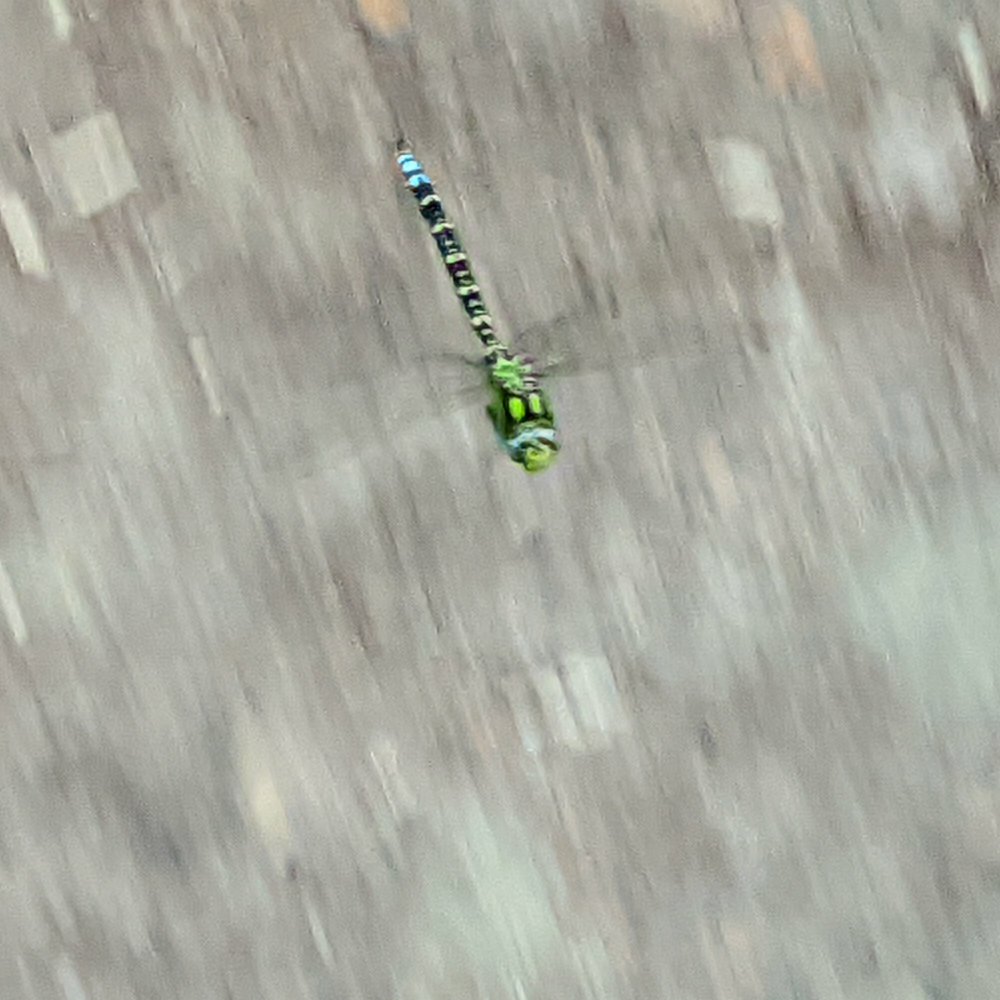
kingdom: Animalia
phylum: Arthropoda
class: Insecta
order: Odonata
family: Aeshnidae
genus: Aeshna
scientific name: Aeshna cyanea
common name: Southern hawker
